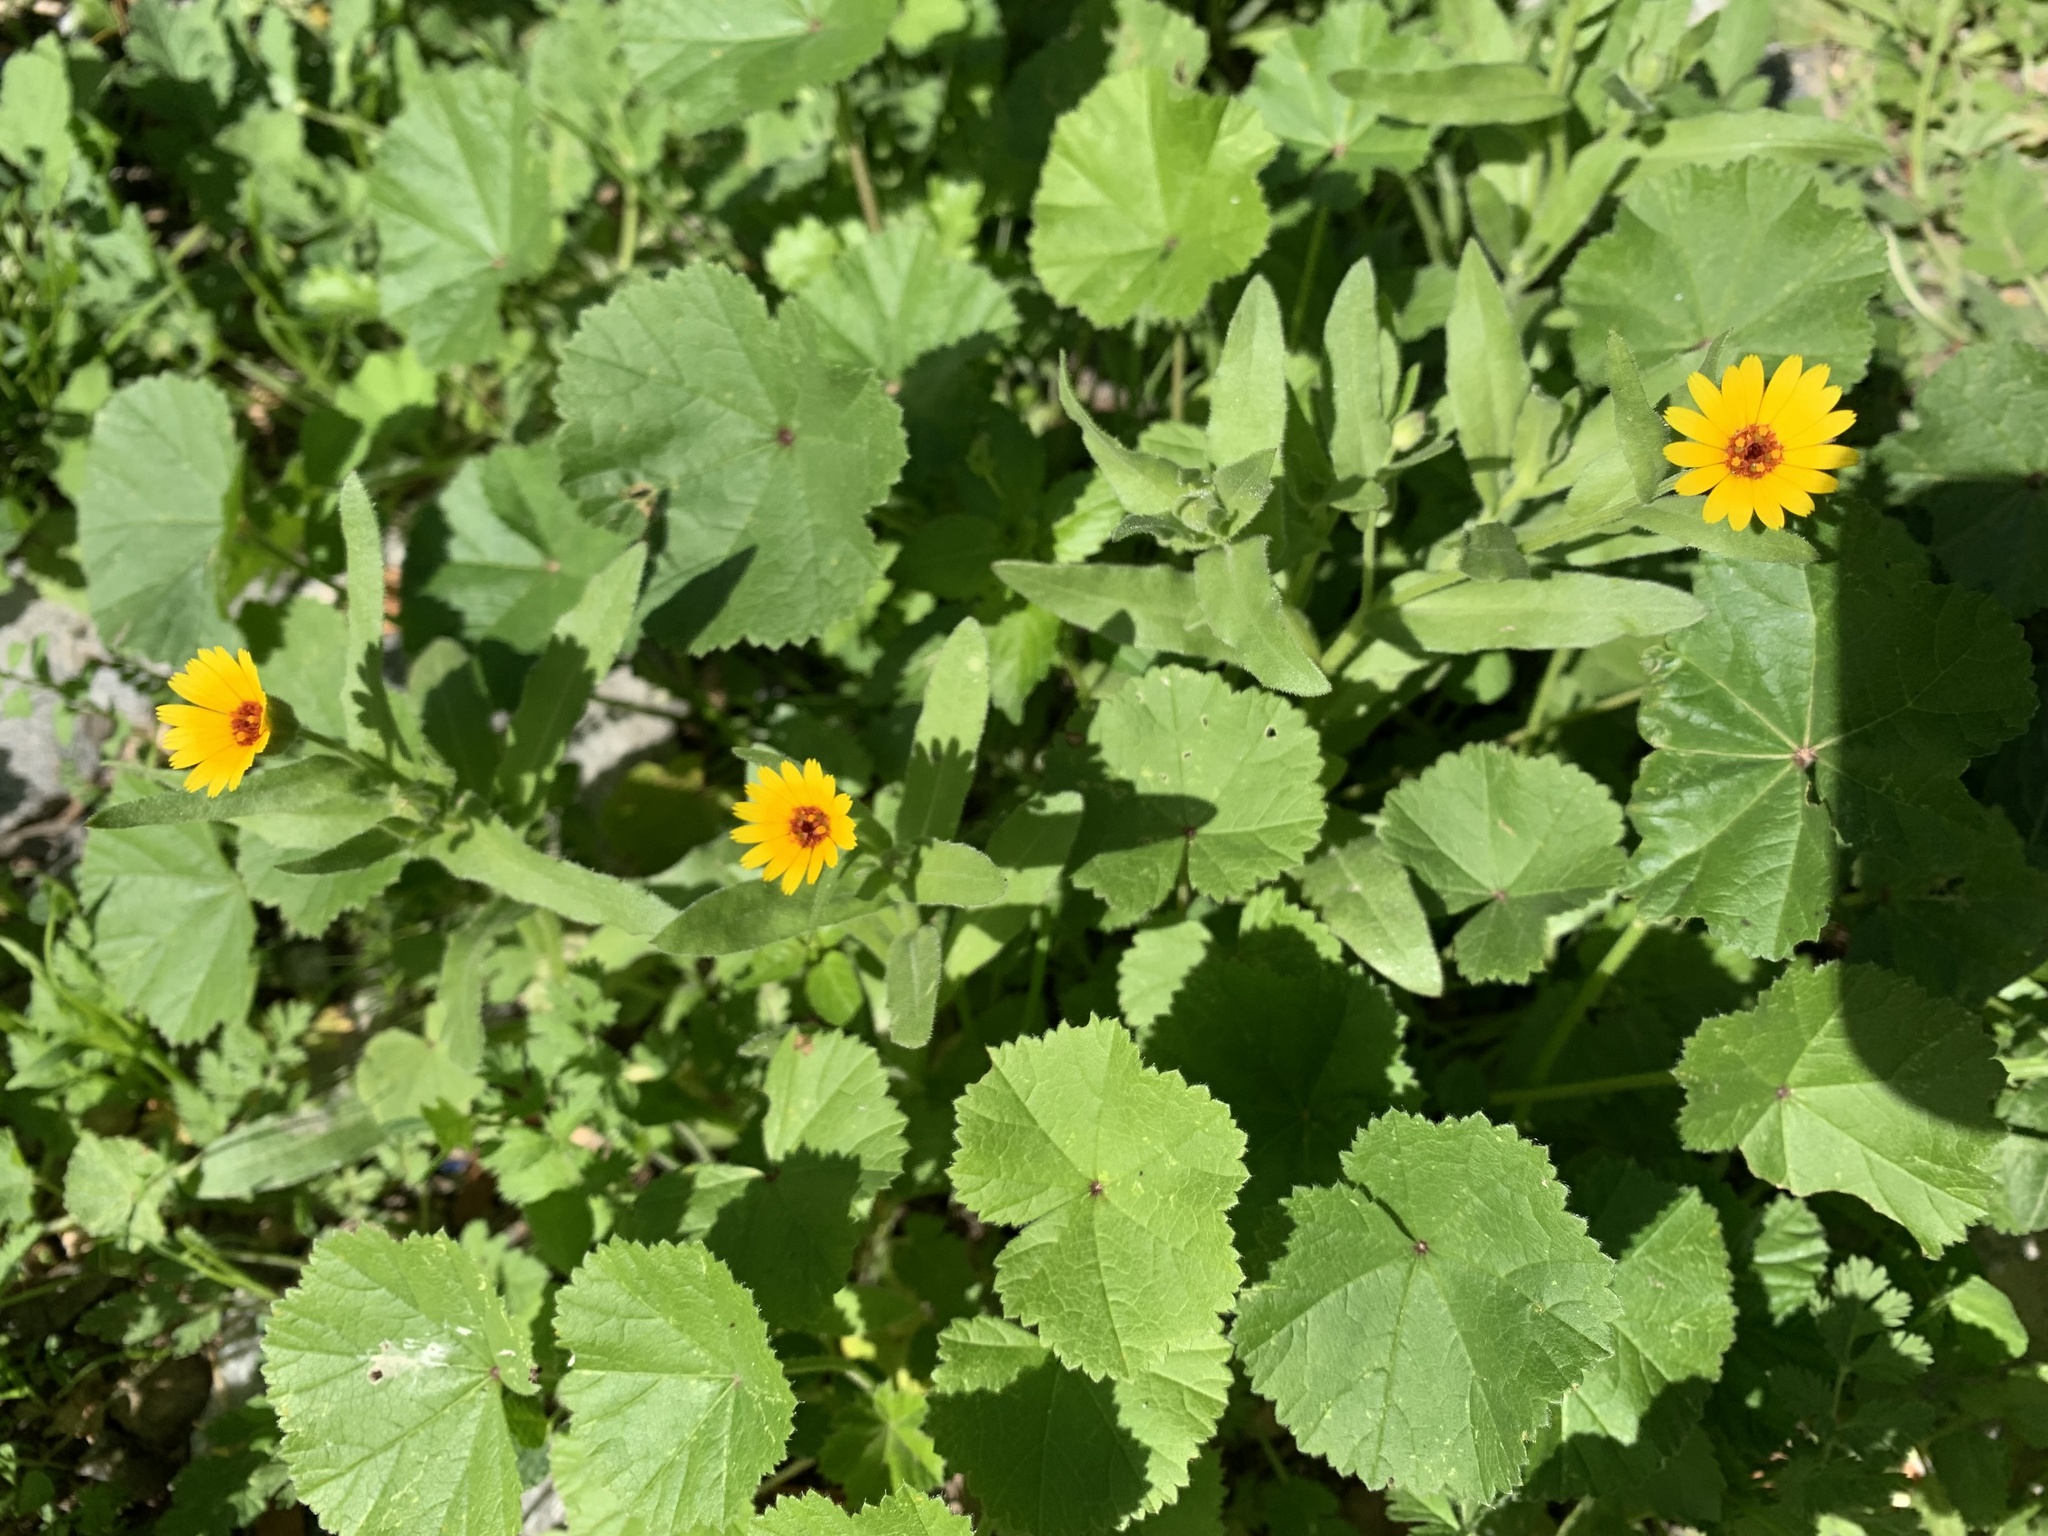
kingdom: Plantae
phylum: Tracheophyta
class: Magnoliopsida
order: Asterales
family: Asteraceae
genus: Calendula
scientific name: Calendula arvensis
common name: Field marigold
